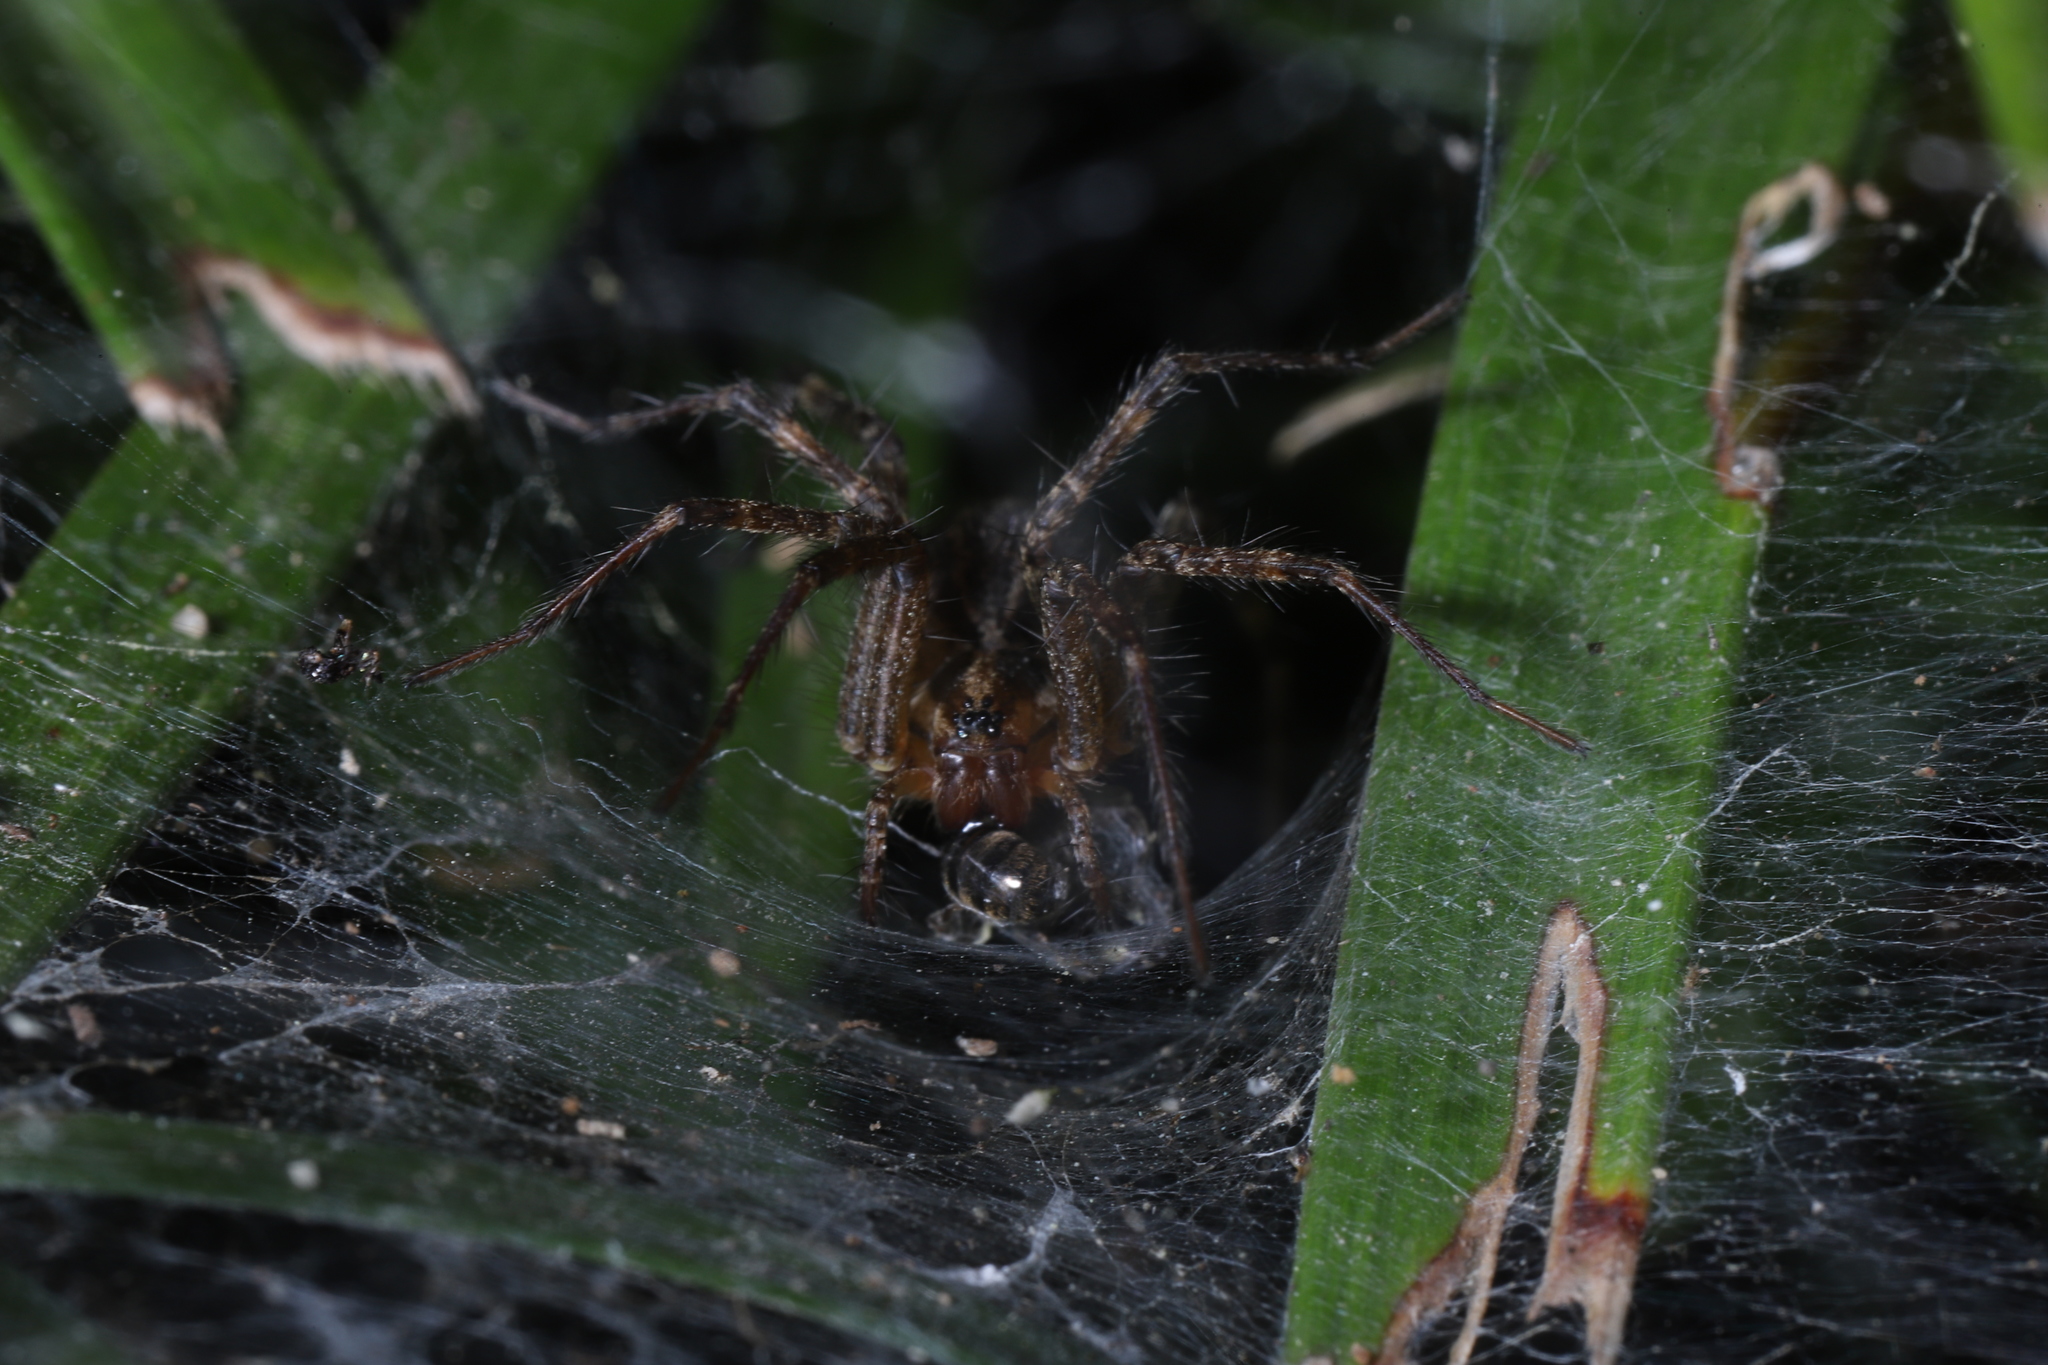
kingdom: Animalia
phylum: Arthropoda
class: Arachnida
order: Araneae
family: Agelenidae
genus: Agelenopsis
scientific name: Agelenopsis
